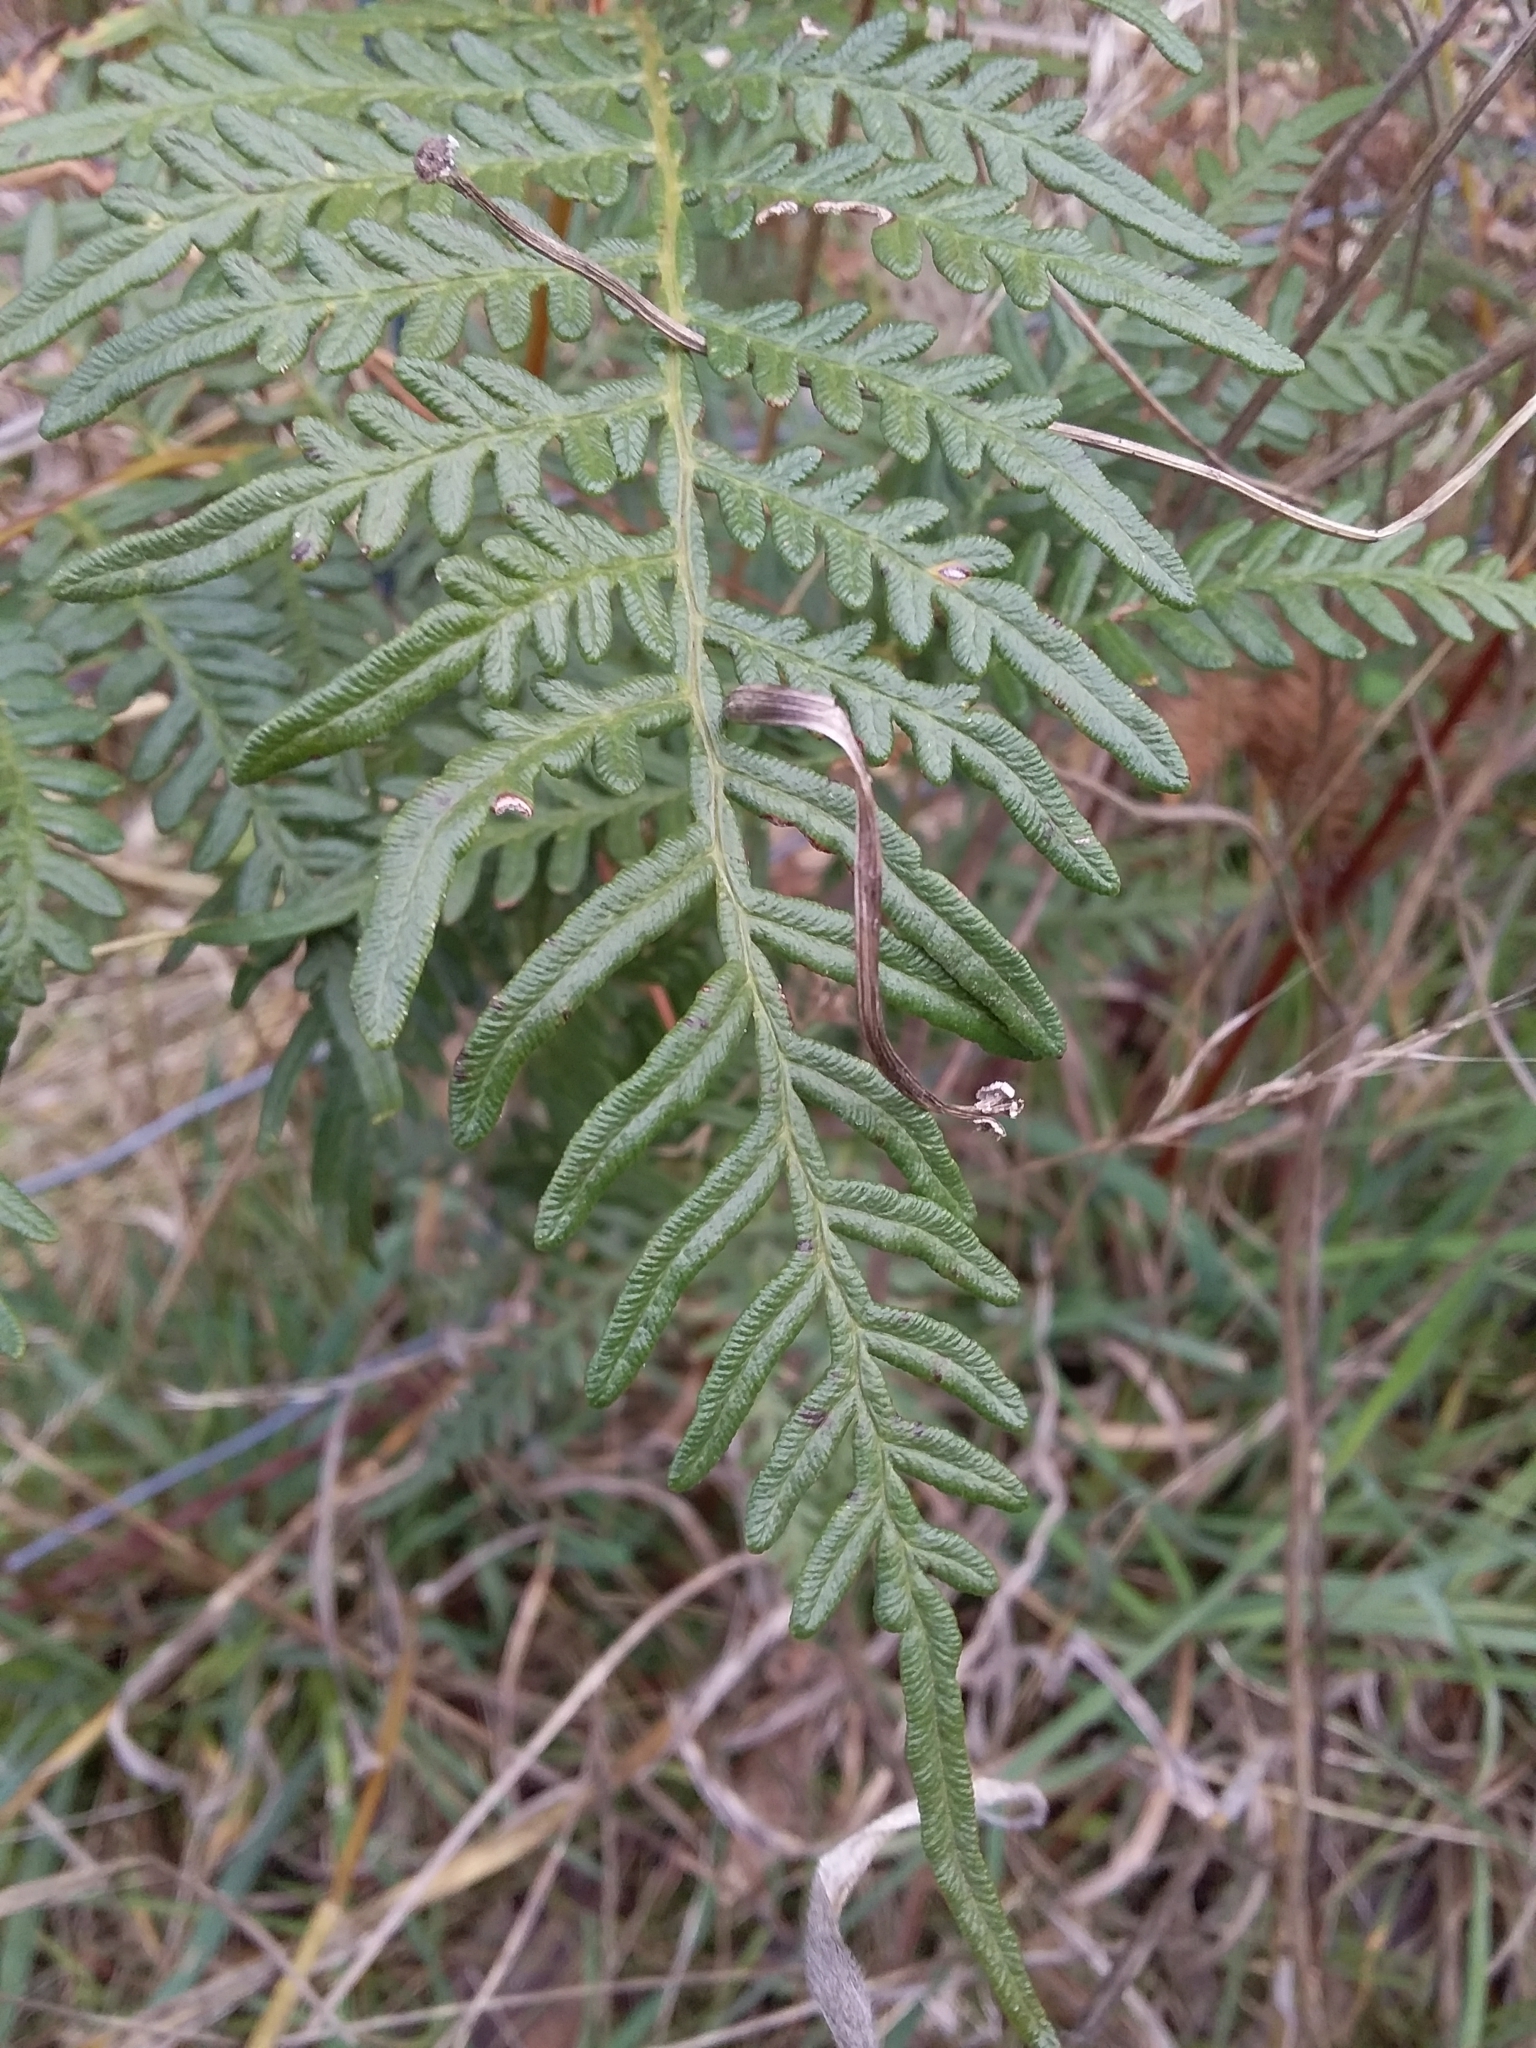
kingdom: Plantae
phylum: Tracheophyta
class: Polypodiopsida
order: Polypodiales
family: Dennstaedtiaceae
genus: Pteridium
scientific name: Pteridium esculentum
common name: Bracken fern
